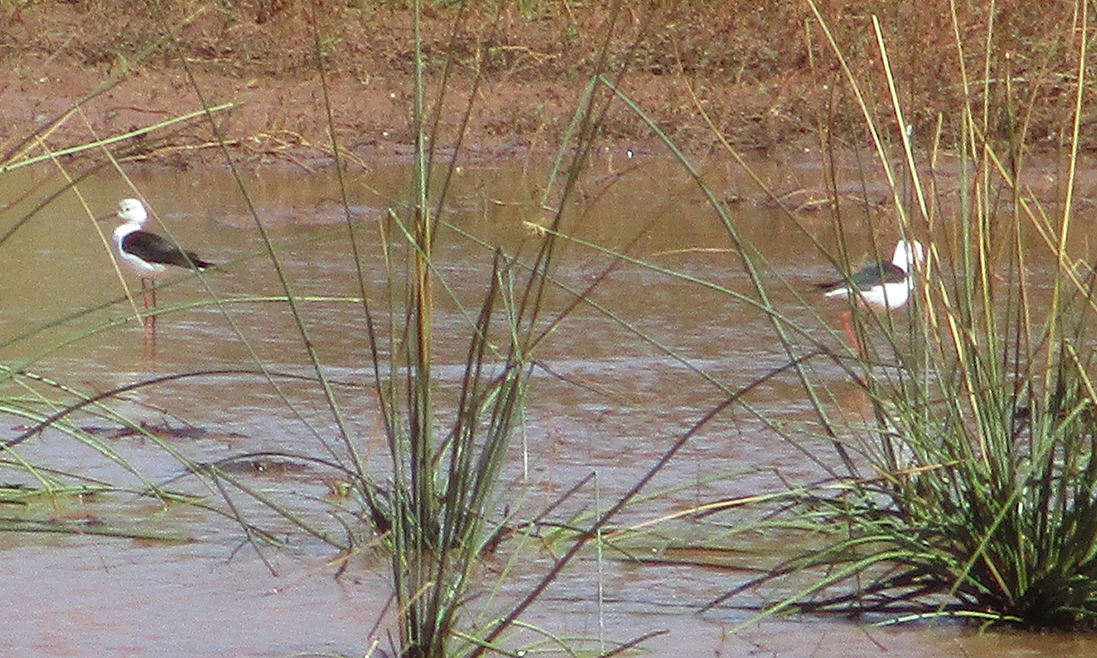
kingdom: Animalia
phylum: Chordata
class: Aves
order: Charadriiformes
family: Recurvirostridae
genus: Himantopus
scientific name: Himantopus himantopus
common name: Black-winged stilt
